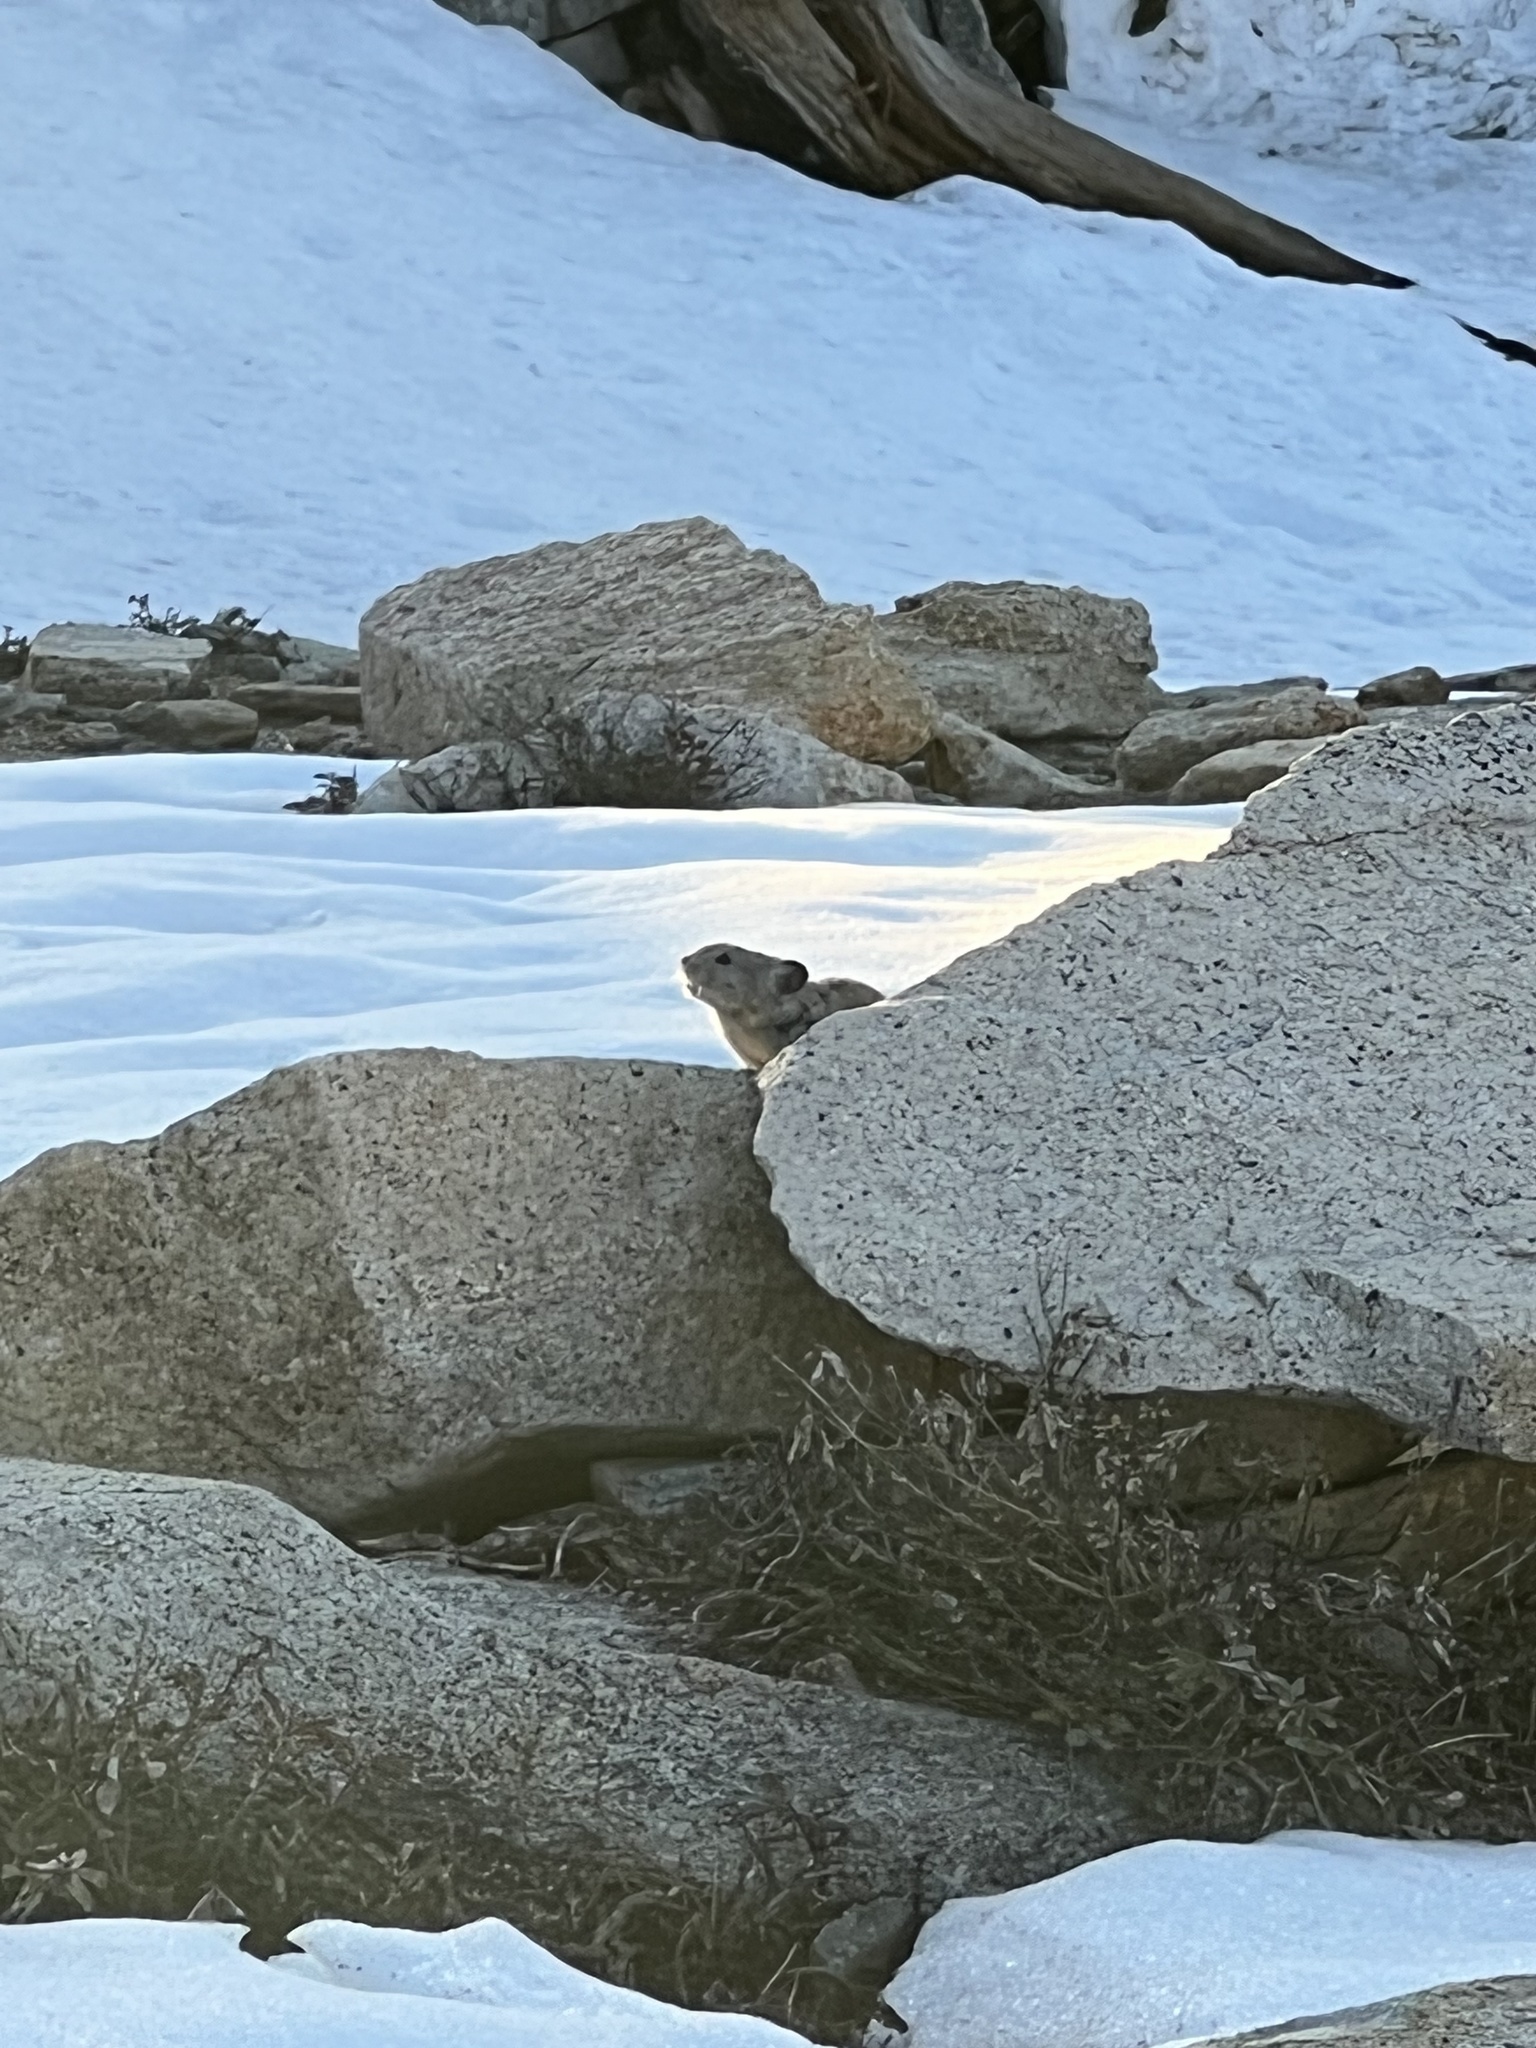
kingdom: Animalia
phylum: Chordata
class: Mammalia
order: Lagomorpha
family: Ochotonidae
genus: Ochotona
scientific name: Ochotona princeps
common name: American pika
